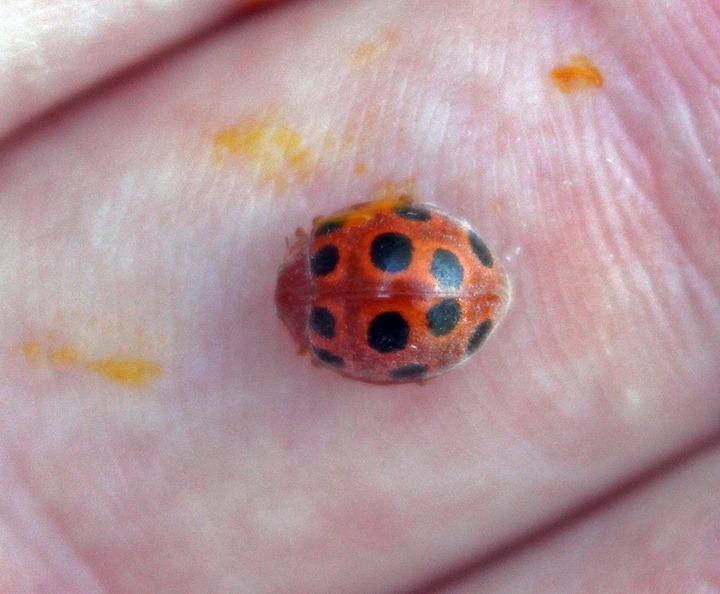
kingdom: Animalia
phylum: Arthropoda
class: Insecta
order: Coleoptera
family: Coccinellidae
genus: Chnootriba
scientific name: Chnootriba elaterii
